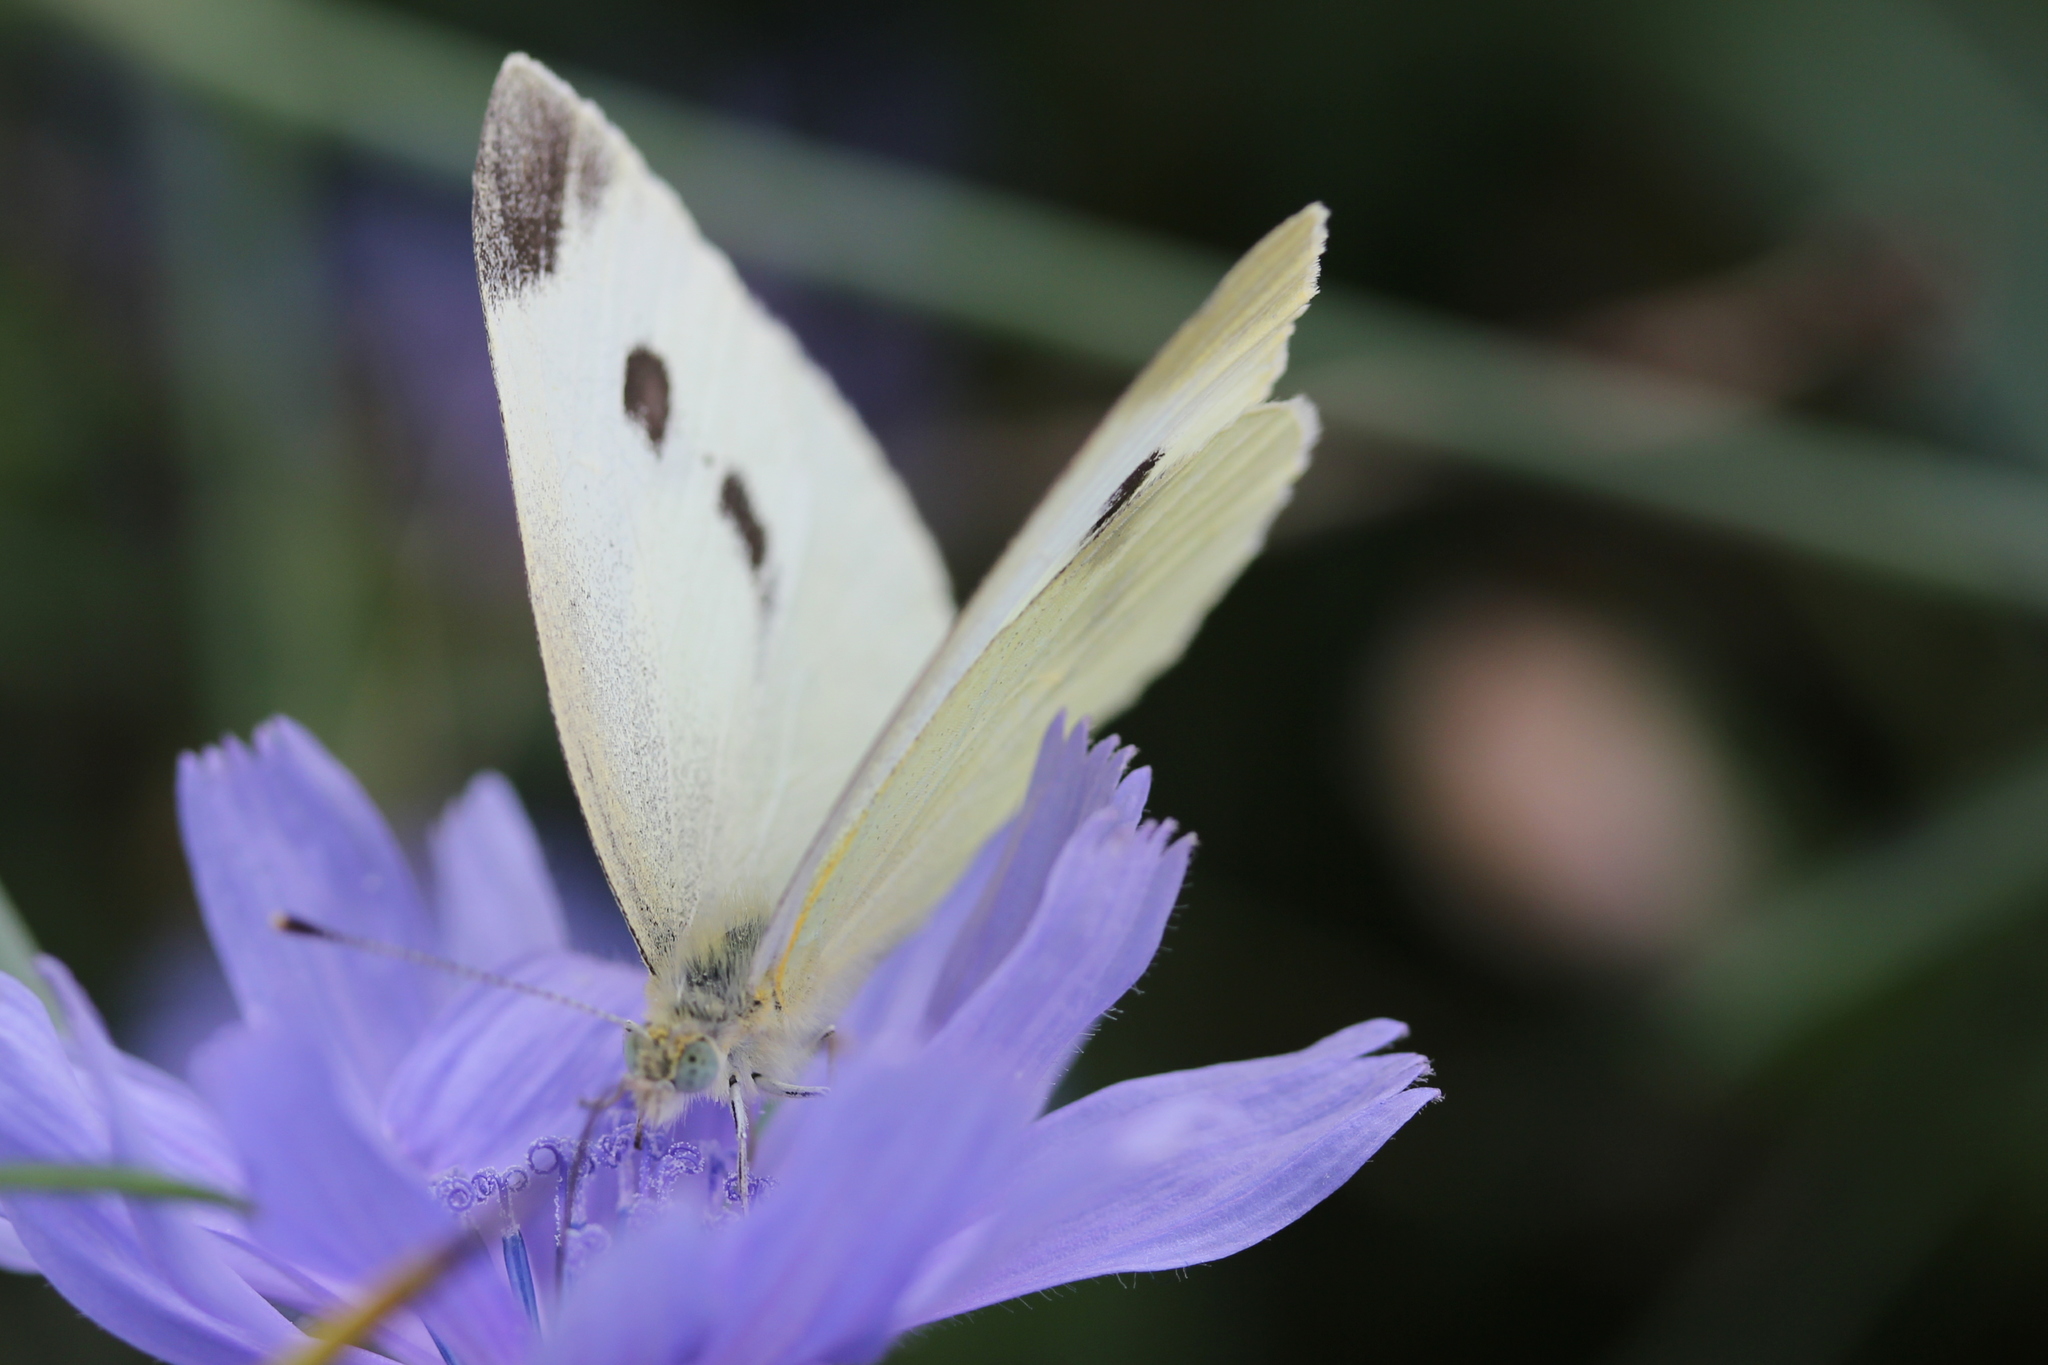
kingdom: Animalia
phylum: Arthropoda
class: Insecta
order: Lepidoptera
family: Pieridae
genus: Pieris
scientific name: Pieris rapae
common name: Small white
